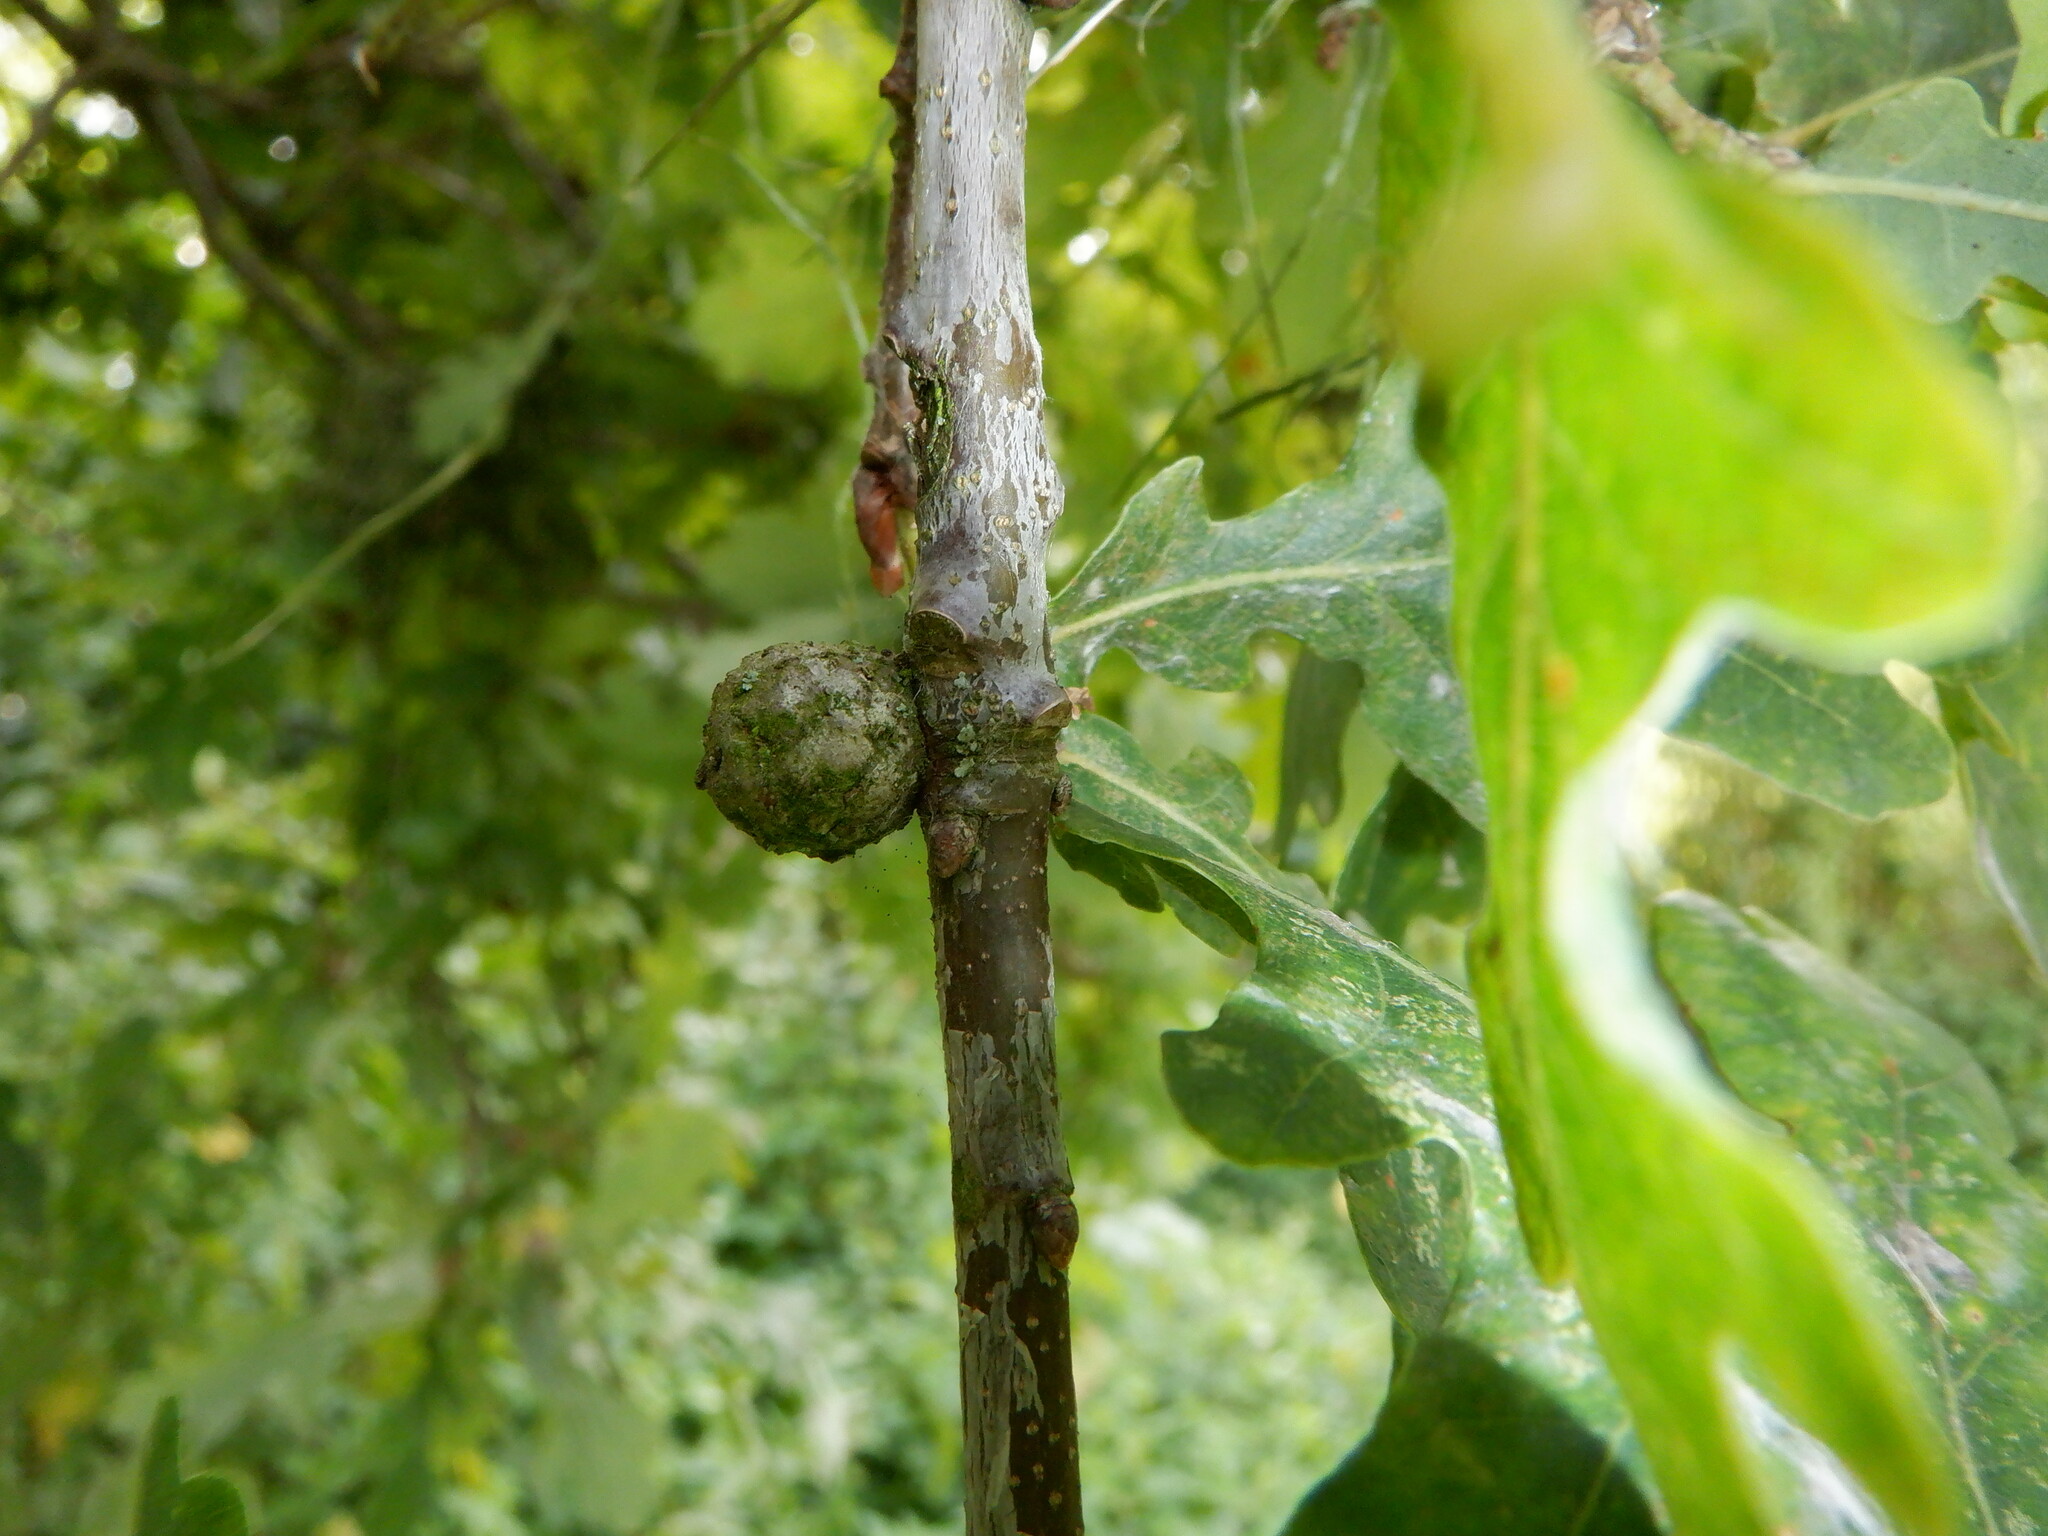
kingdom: Animalia
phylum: Arthropoda
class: Insecta
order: Hymenoptera
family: Cynipidae
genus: Andricus
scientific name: Andricus lignicolus
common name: Cola-nut gall
